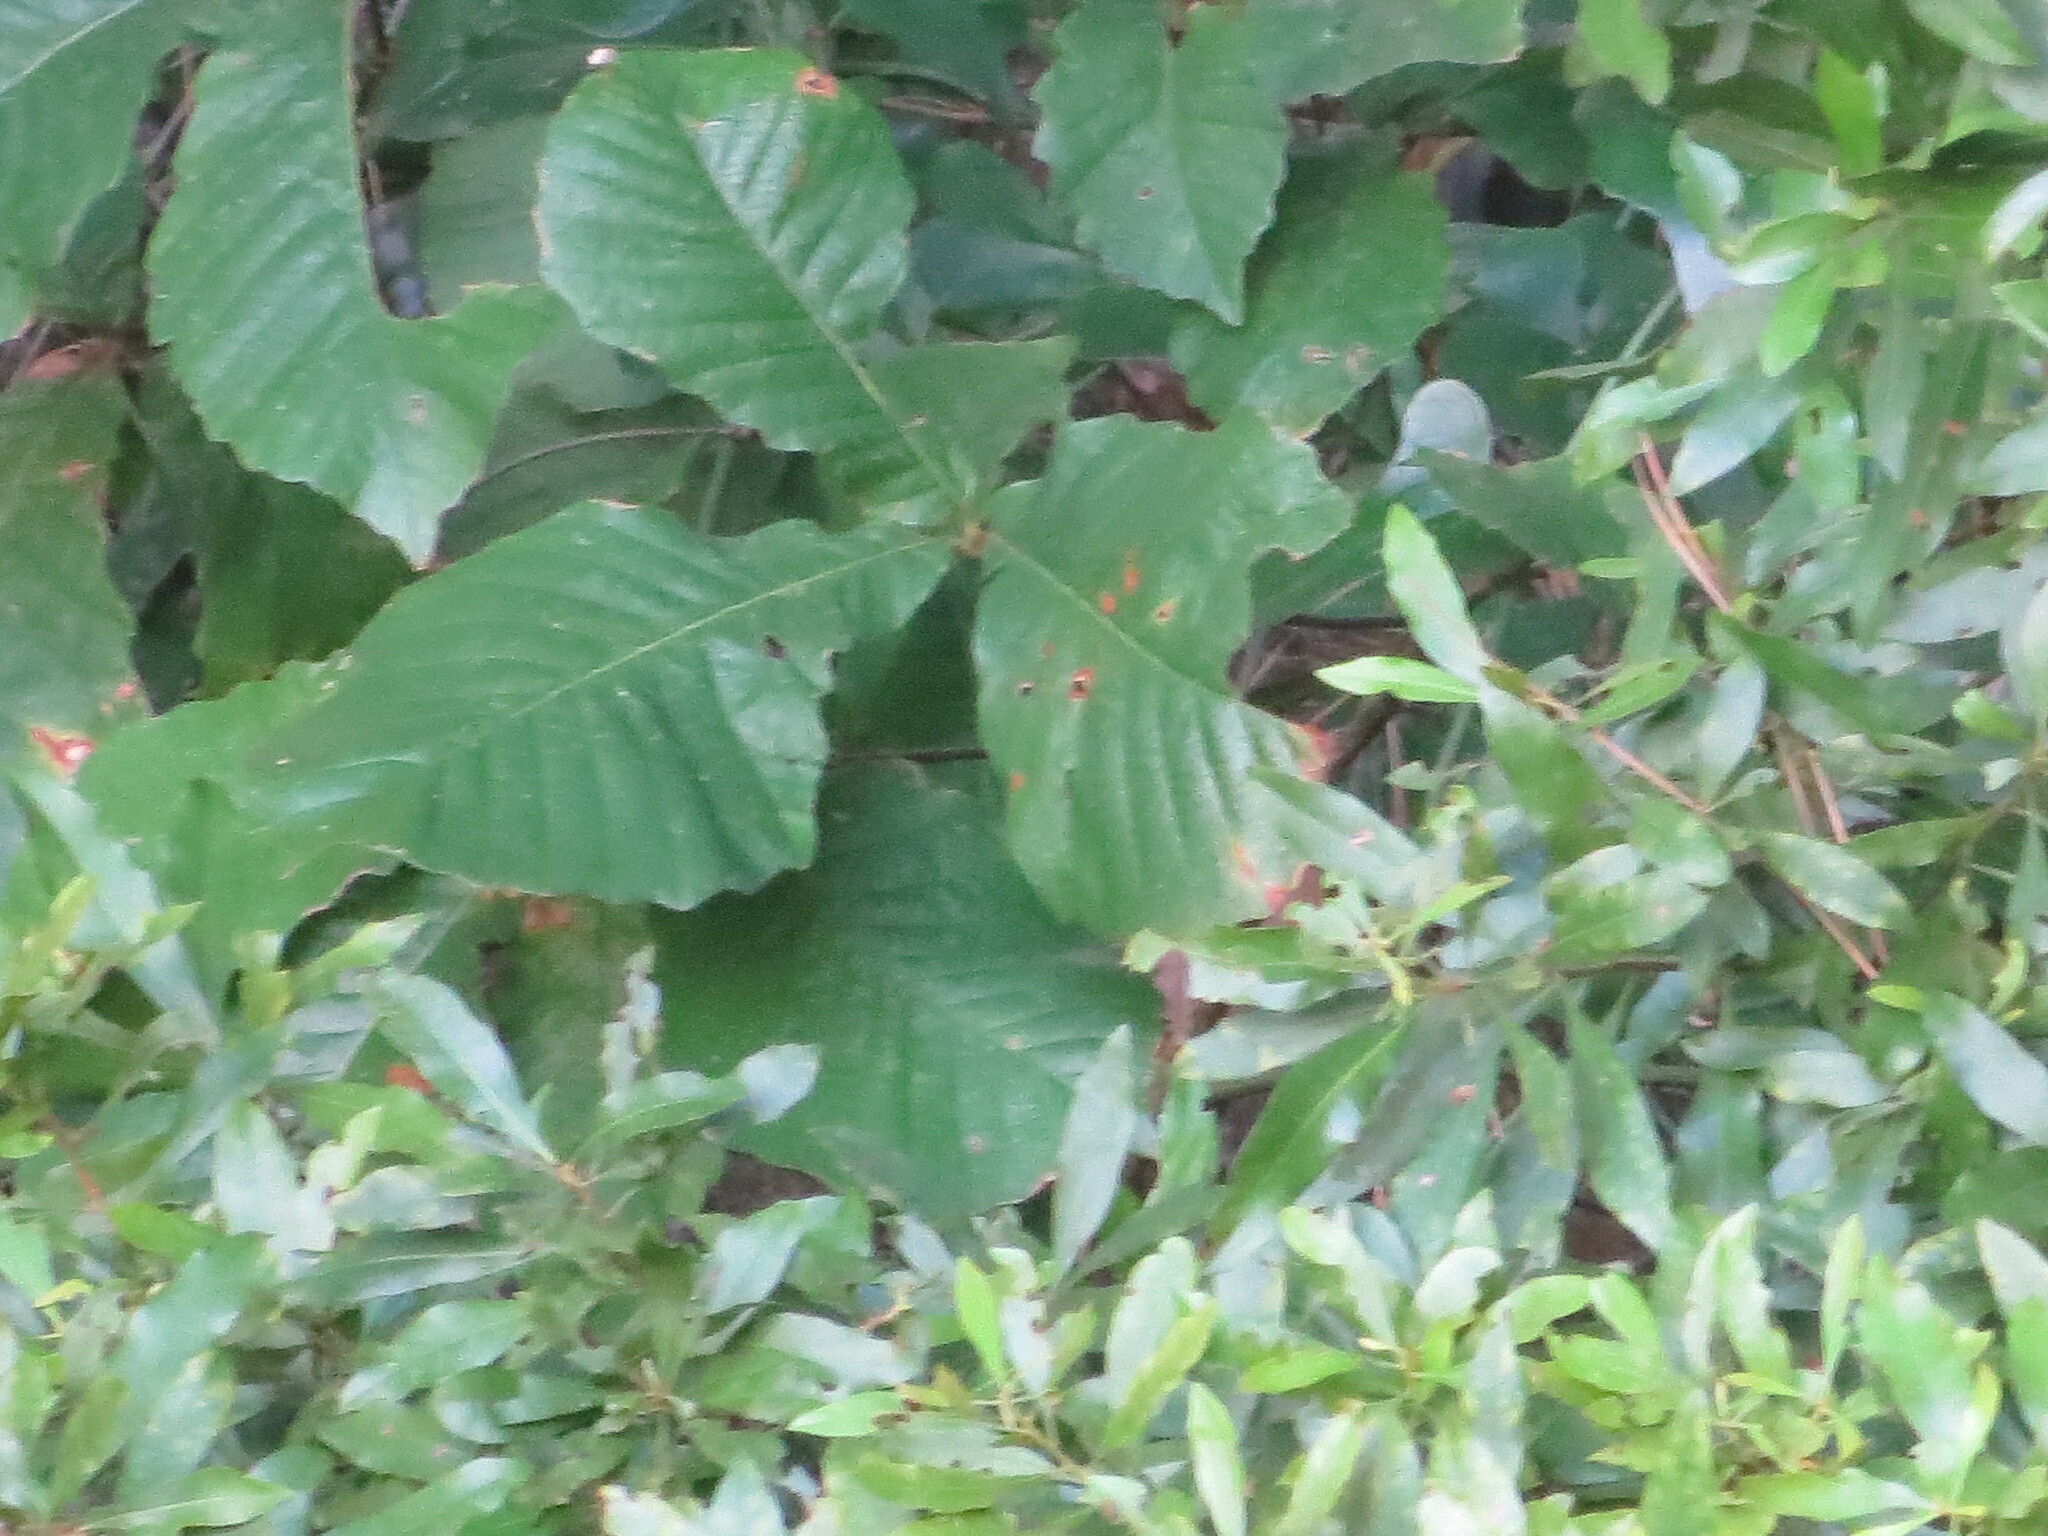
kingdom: Plantae
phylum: Tracheophyta
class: Magnoliopsida
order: Fagales
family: Fagaceae
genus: Quercus
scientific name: Quercus michauxii
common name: Swamp chestnut oak
